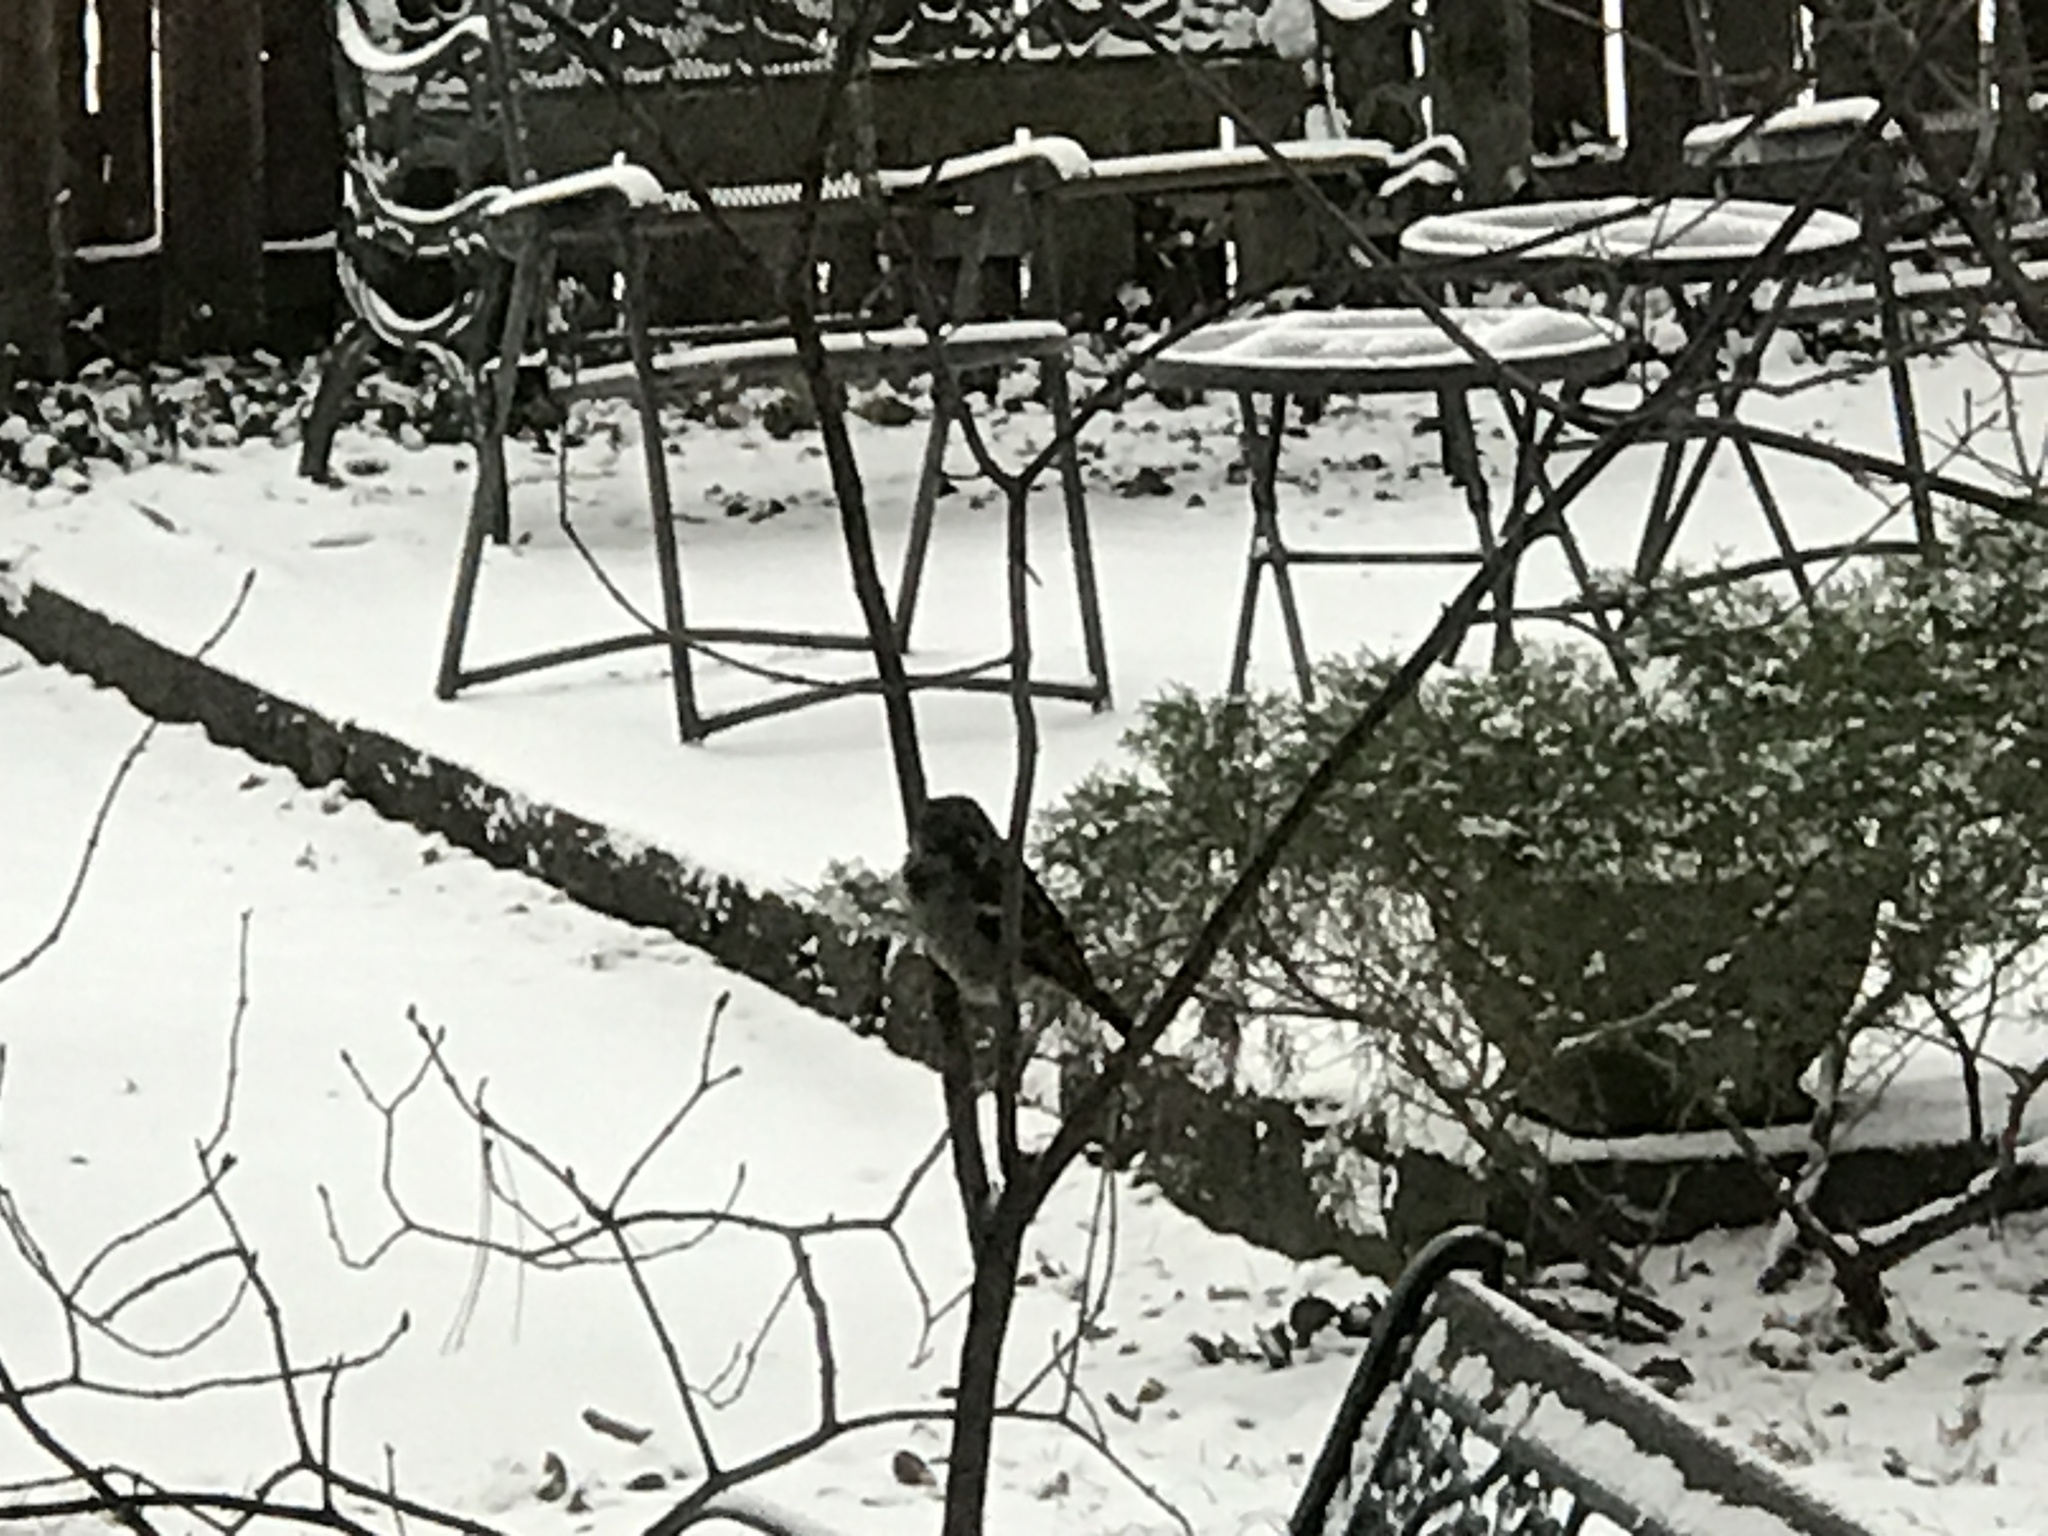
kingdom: Animalia
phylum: Chordata
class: Aves
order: Passeriformes
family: Passeridae
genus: Passer
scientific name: Passer domesticus
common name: House sparrow
